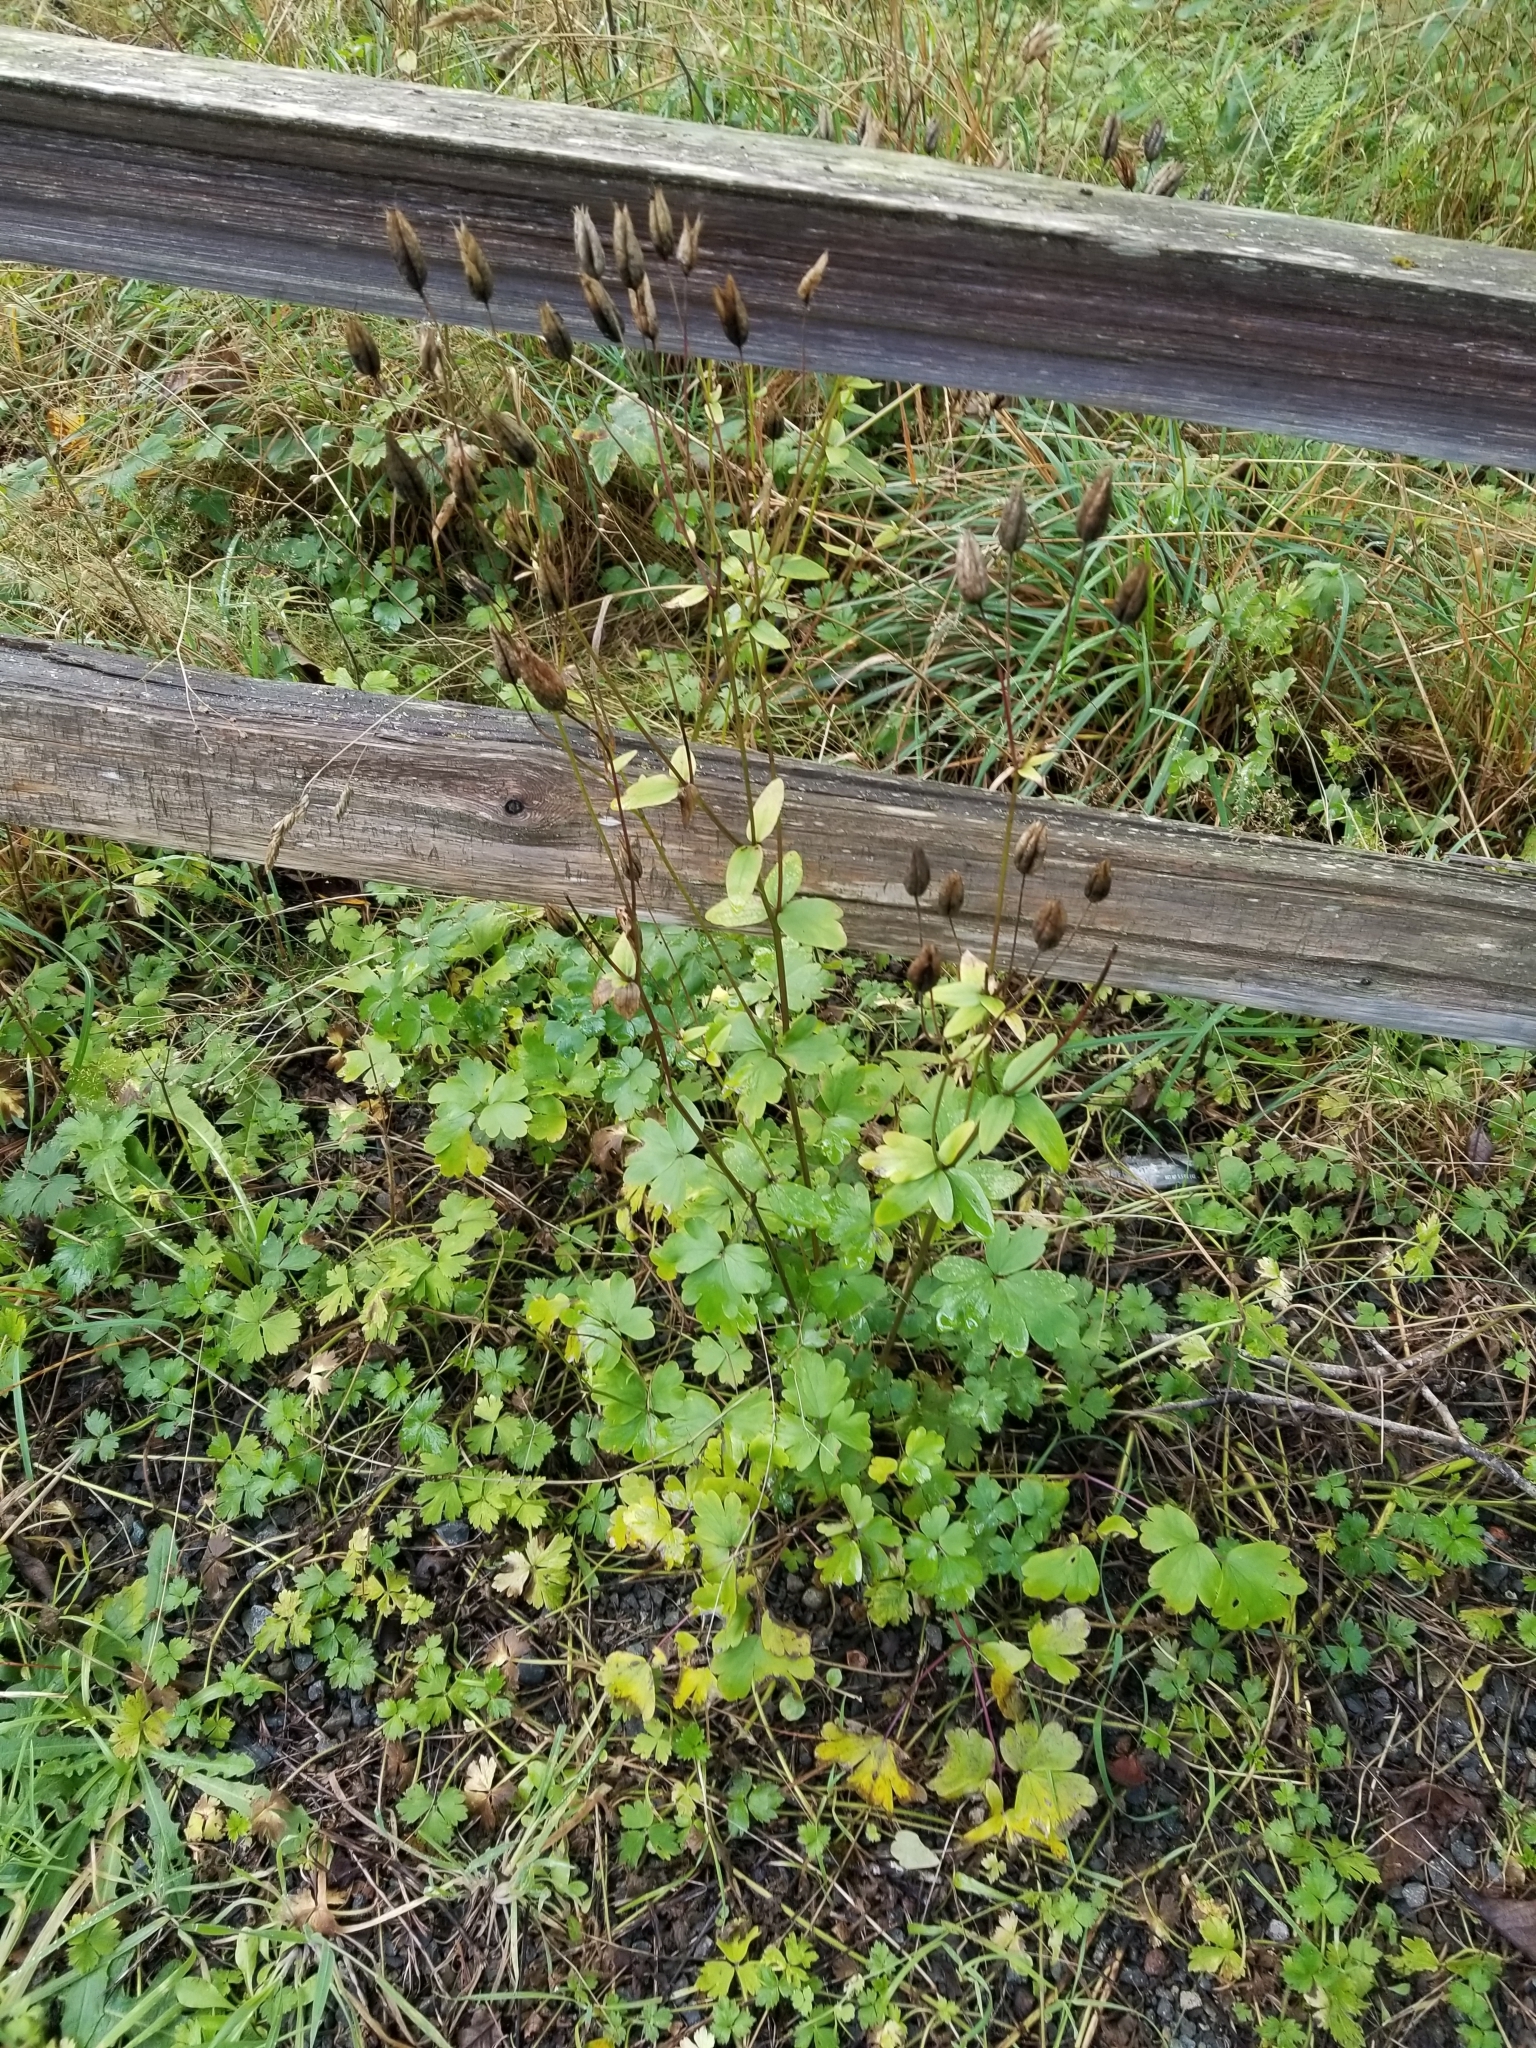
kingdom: Plantae
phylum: Tracheophyta
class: Magnoliopsida
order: Ranunculales
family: Ranunculaceae
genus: Aquilegia
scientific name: Aquilegia vulgaris
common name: Columbine
